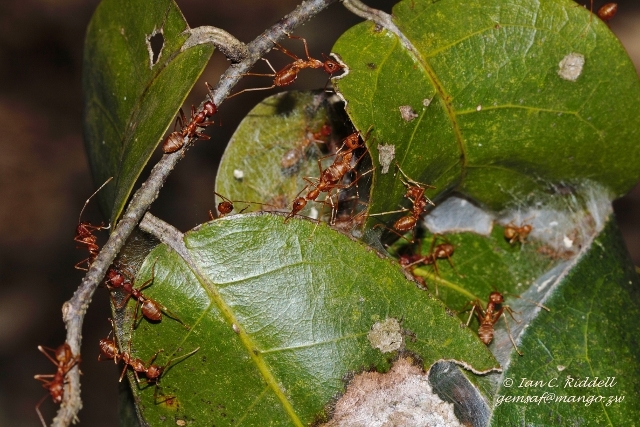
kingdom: Animalia
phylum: Arthropoda
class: Insecta
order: Hymenoptera
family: Formicidae
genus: Oecophylla
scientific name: Oecophylla longinoda
